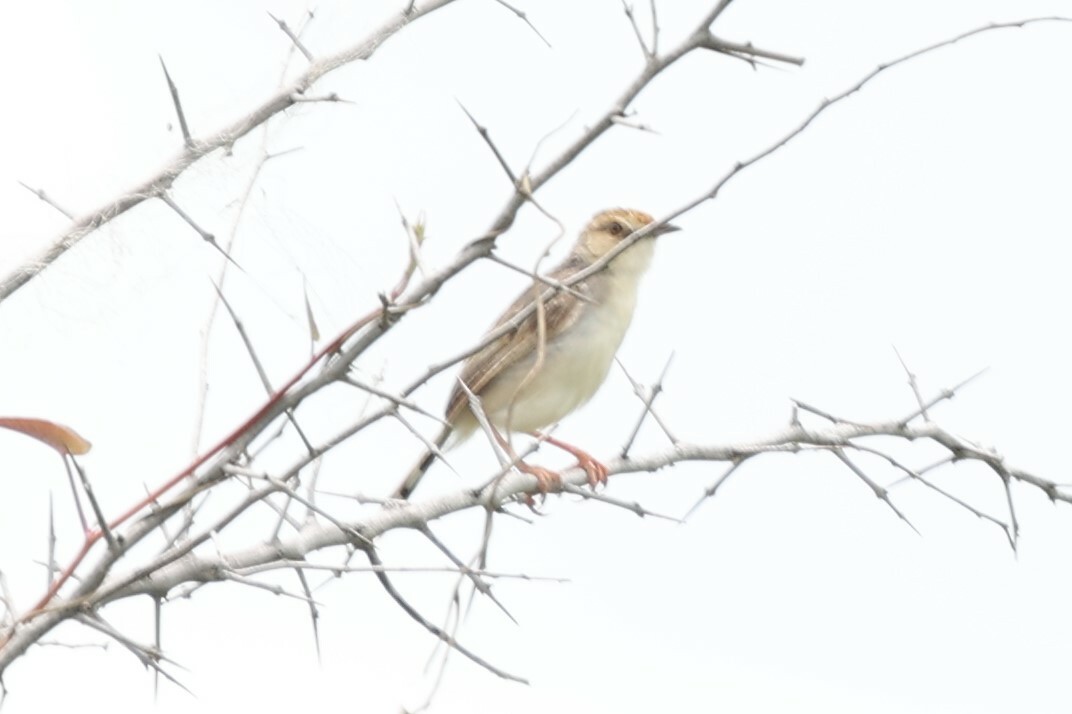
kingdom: Animalia
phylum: Chordata
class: Aves
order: Passeriformes
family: Cisticolidae
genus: Cisticola
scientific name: Cisticola chiniana
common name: Rattling cisticola
